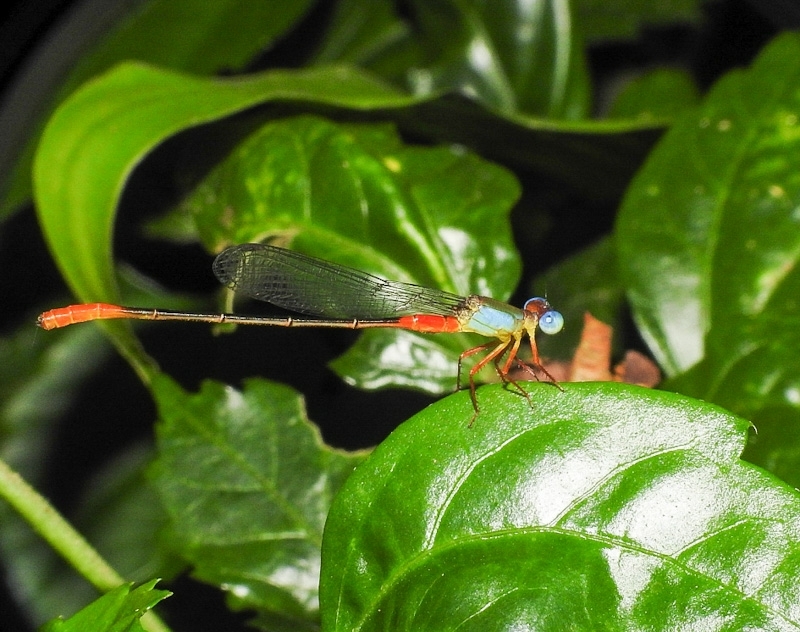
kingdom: Animalia
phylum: Arthropoda
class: Insecta
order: Odonata
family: Coenagrionidae
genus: Ceriagrion
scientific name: Ceriagrion cerinorubellum
